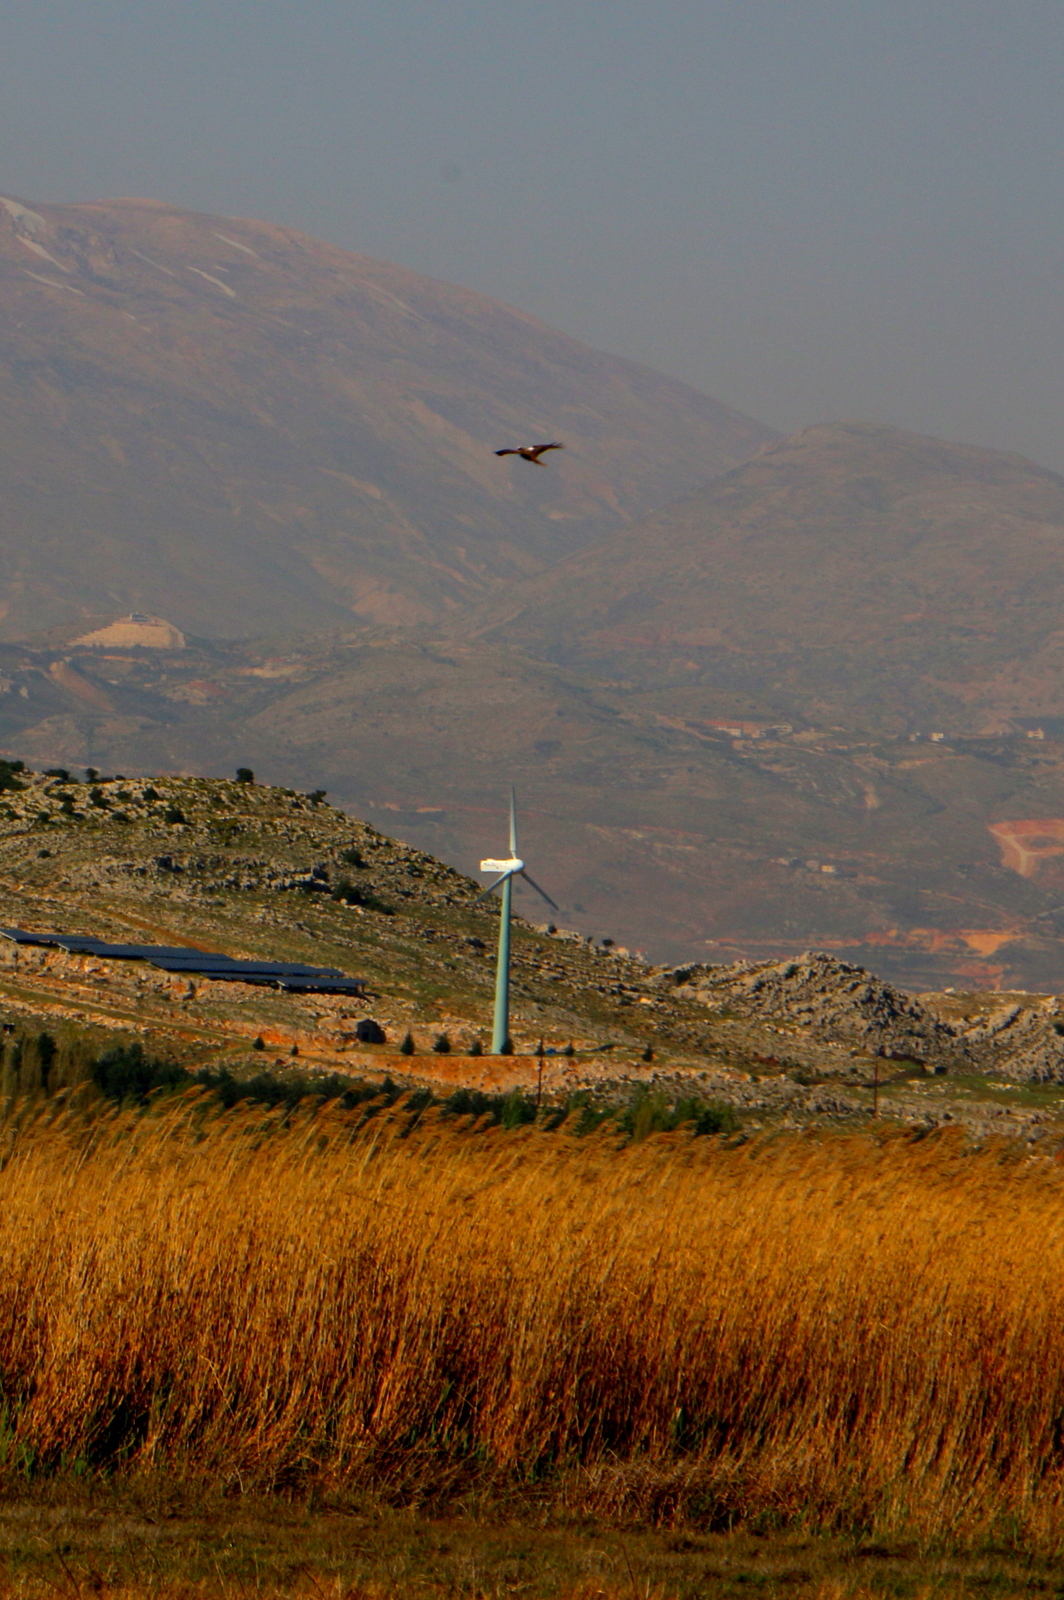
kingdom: Animalia
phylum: Chordata
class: Aves
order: Accipitriformes
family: Accipitridae
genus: Circus
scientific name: Circus aeruginosus
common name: Western marsh harrier
